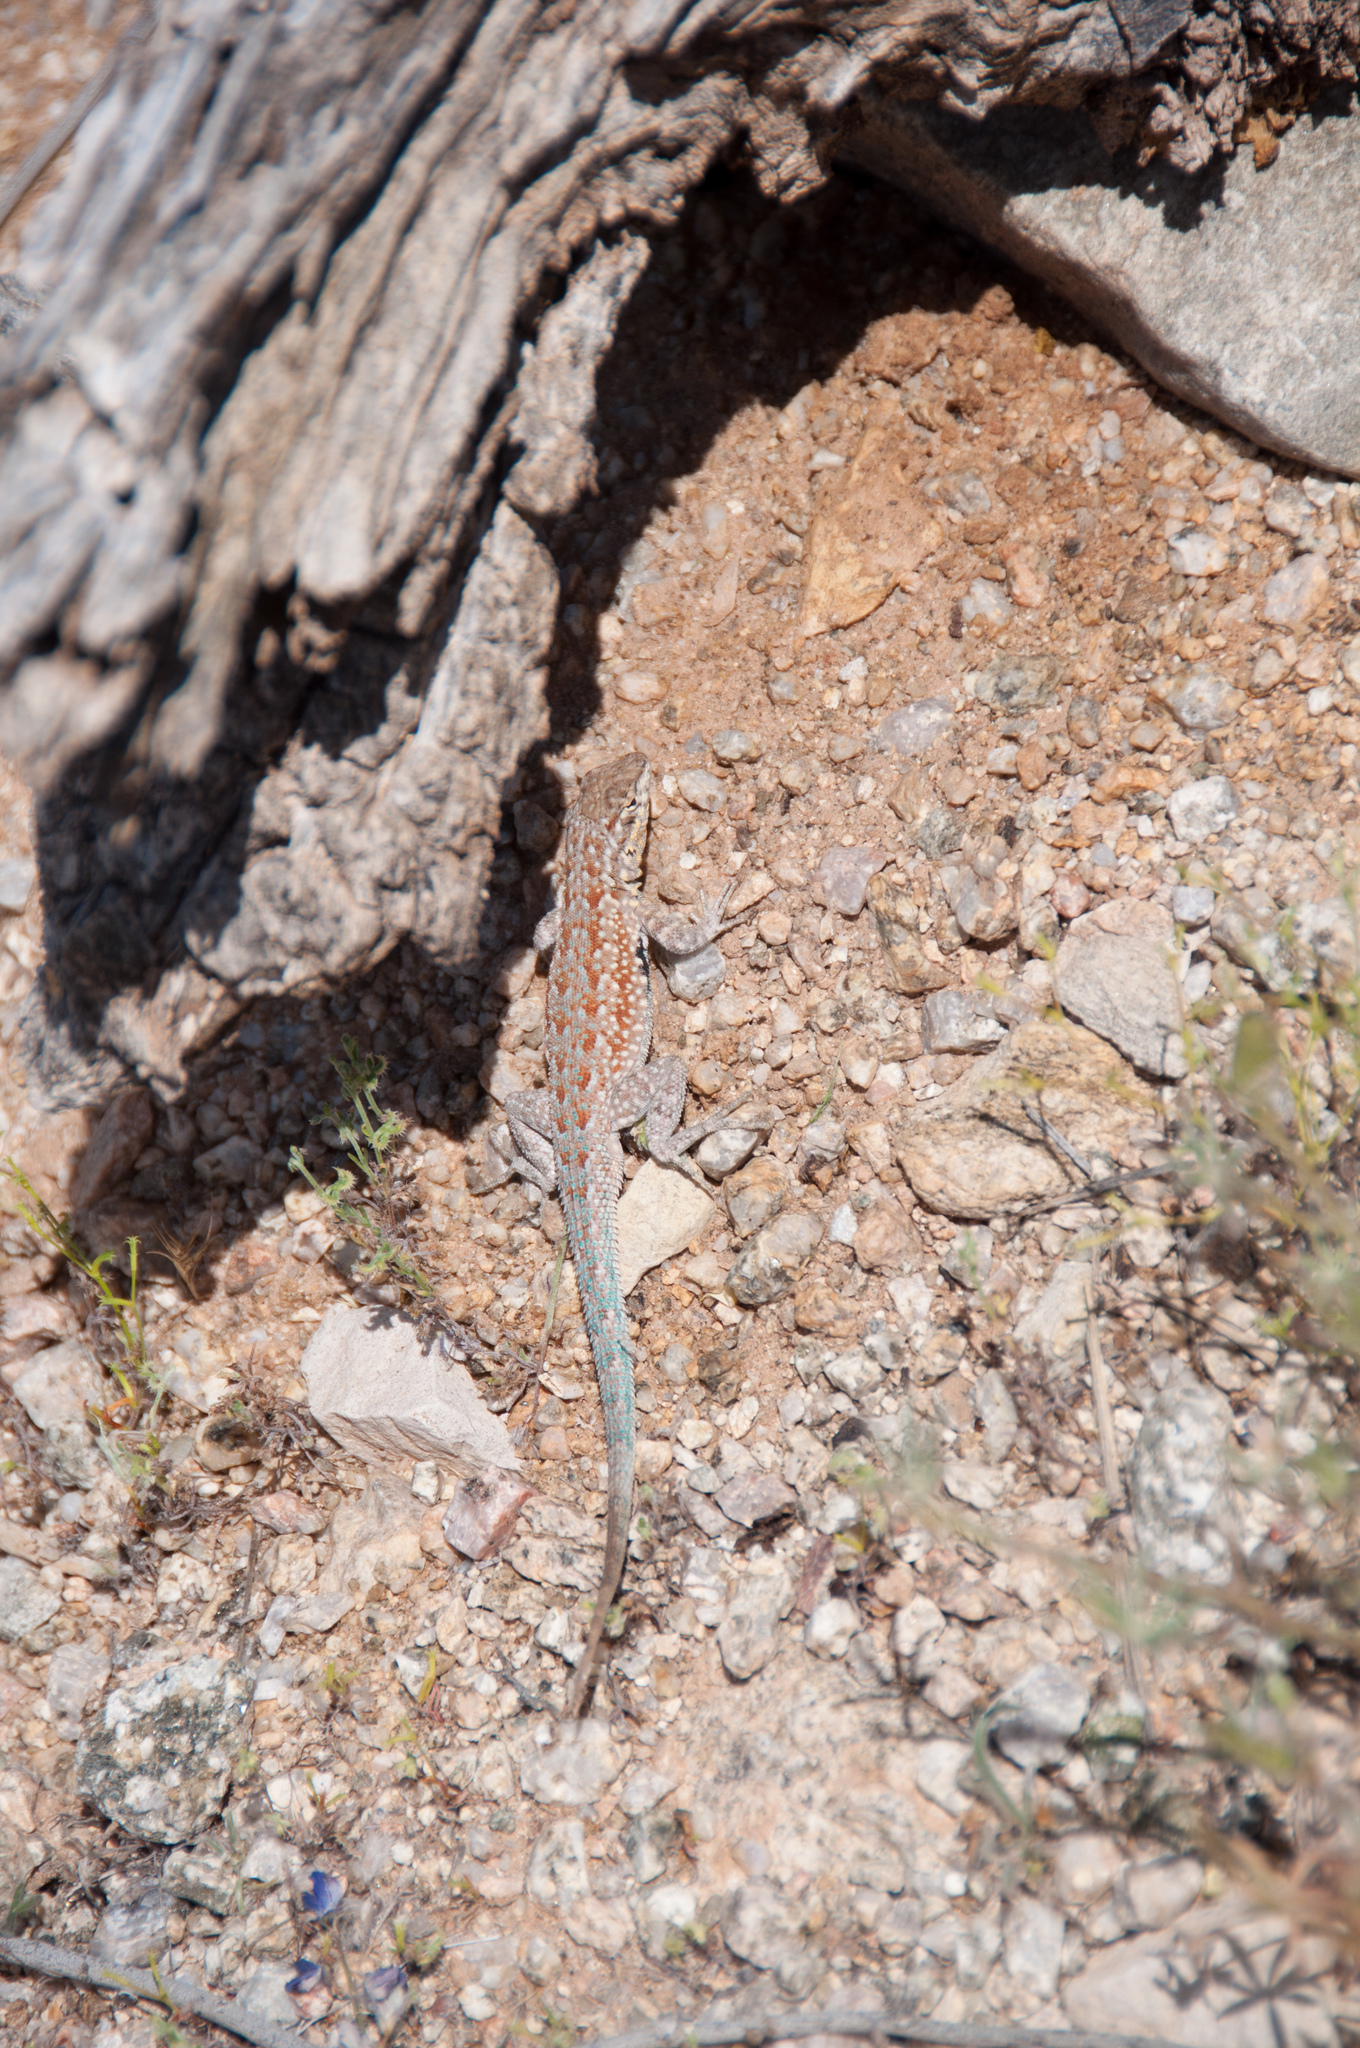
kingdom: Animalia
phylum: Chordata
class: Squamata
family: Phrynosomatidae
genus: Uta
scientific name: Uta stansburiana
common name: Side-blotched lizard
